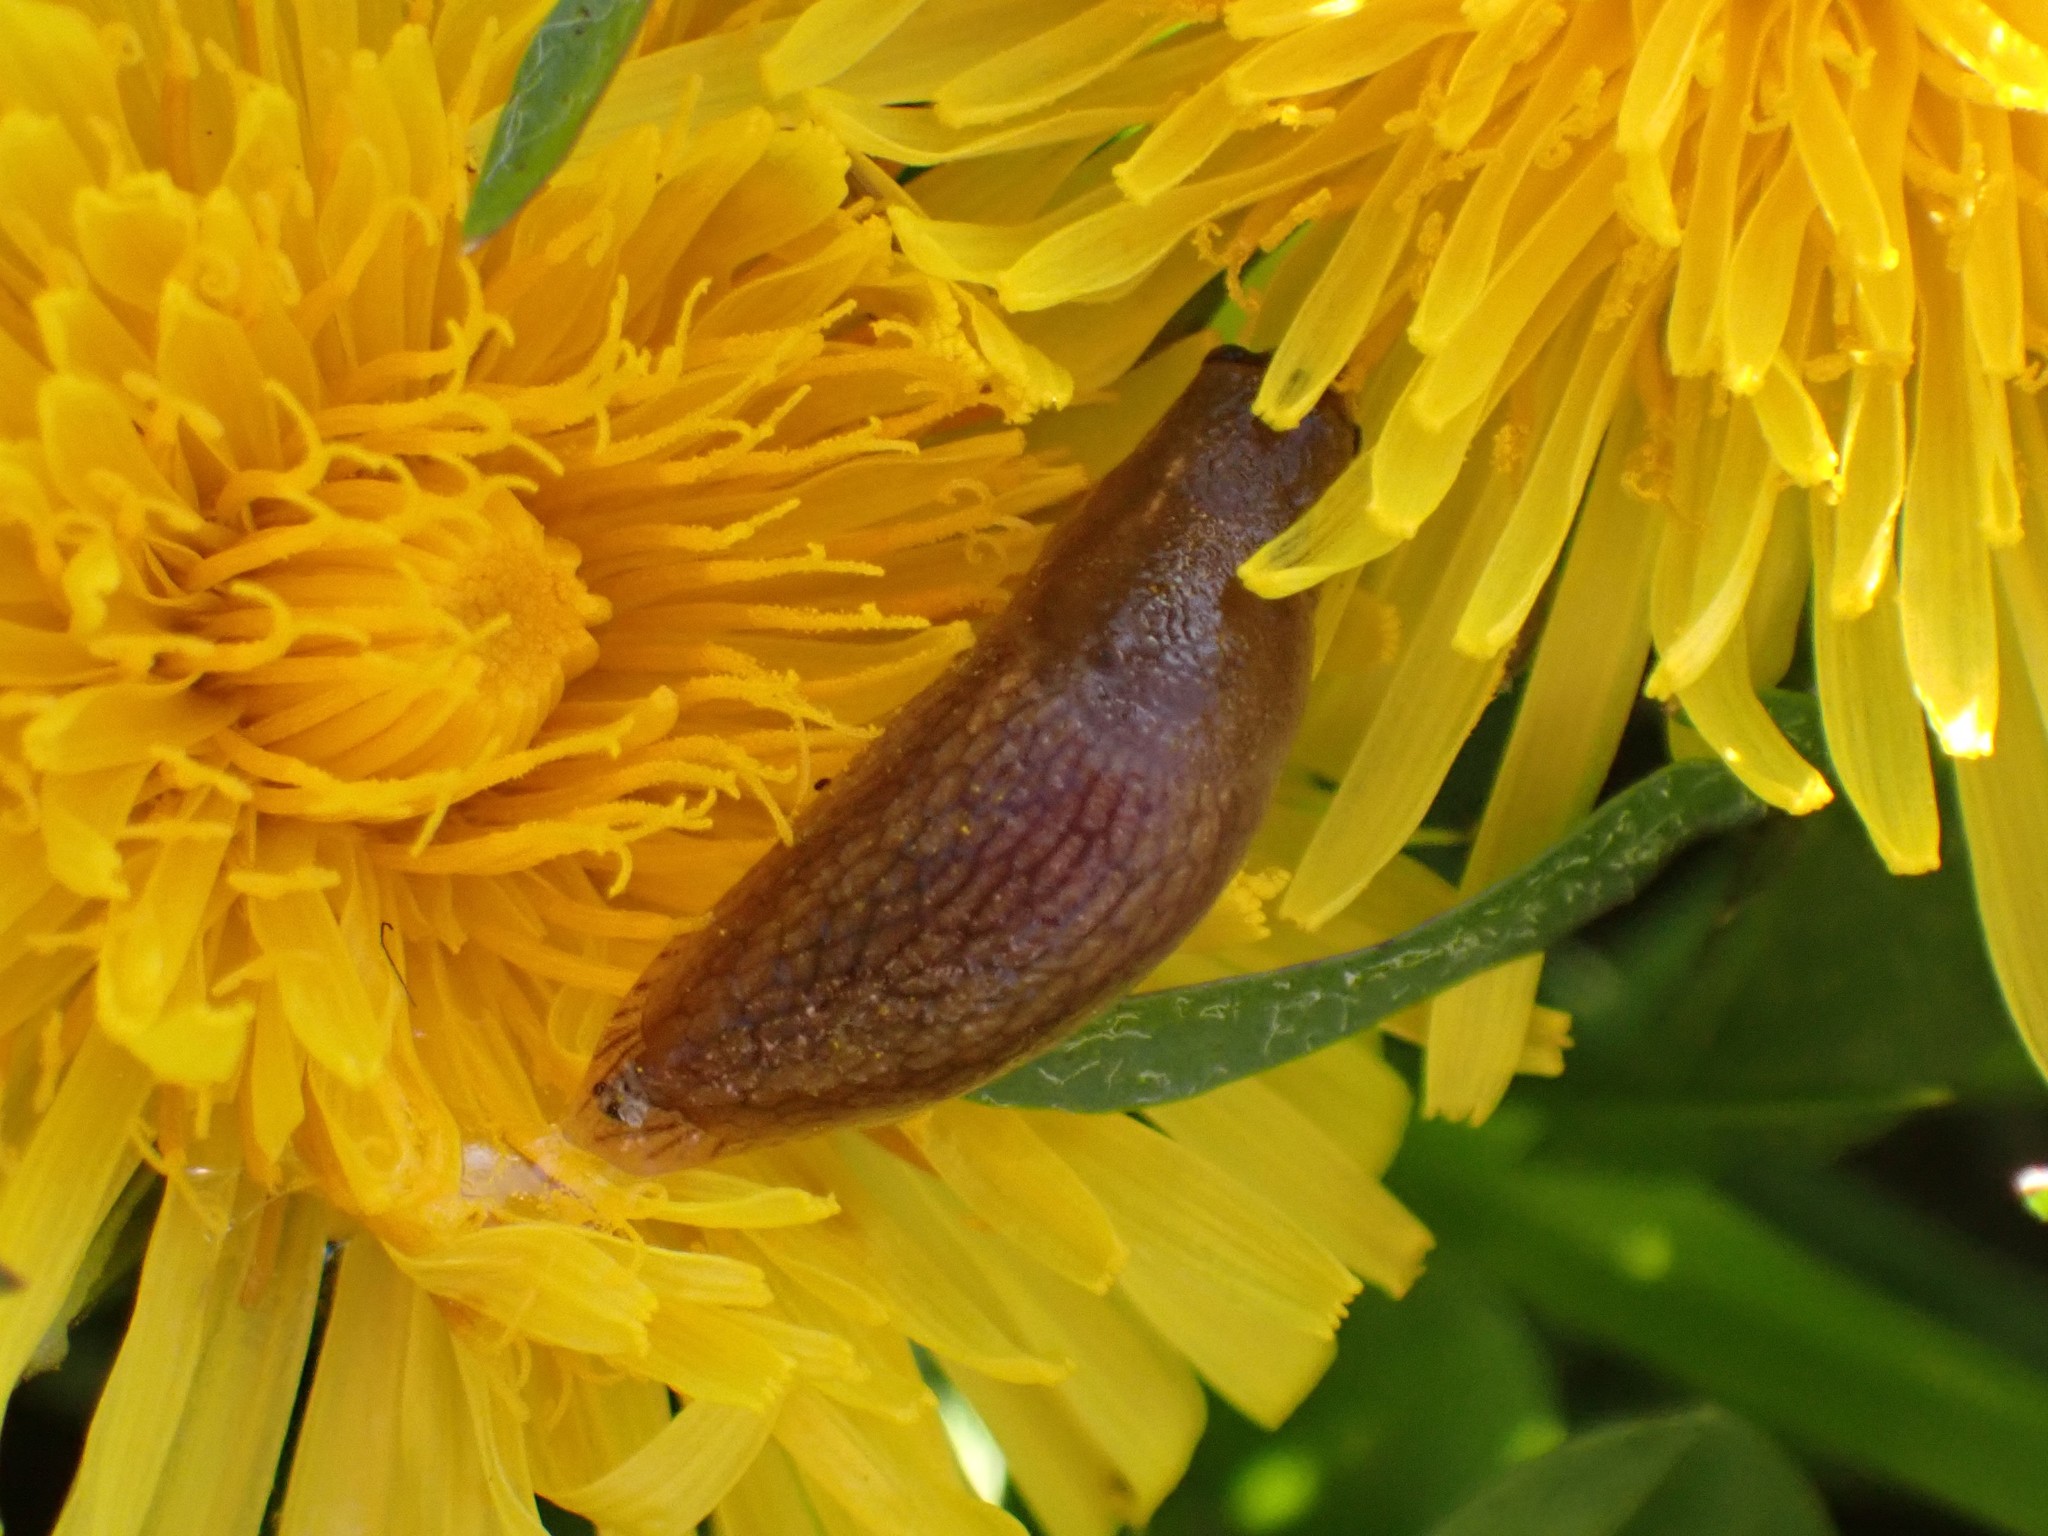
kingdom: Animalia
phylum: Mollusca
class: Gastropoda
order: Stylommatophora
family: Arionidae
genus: Arion
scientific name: Arion
